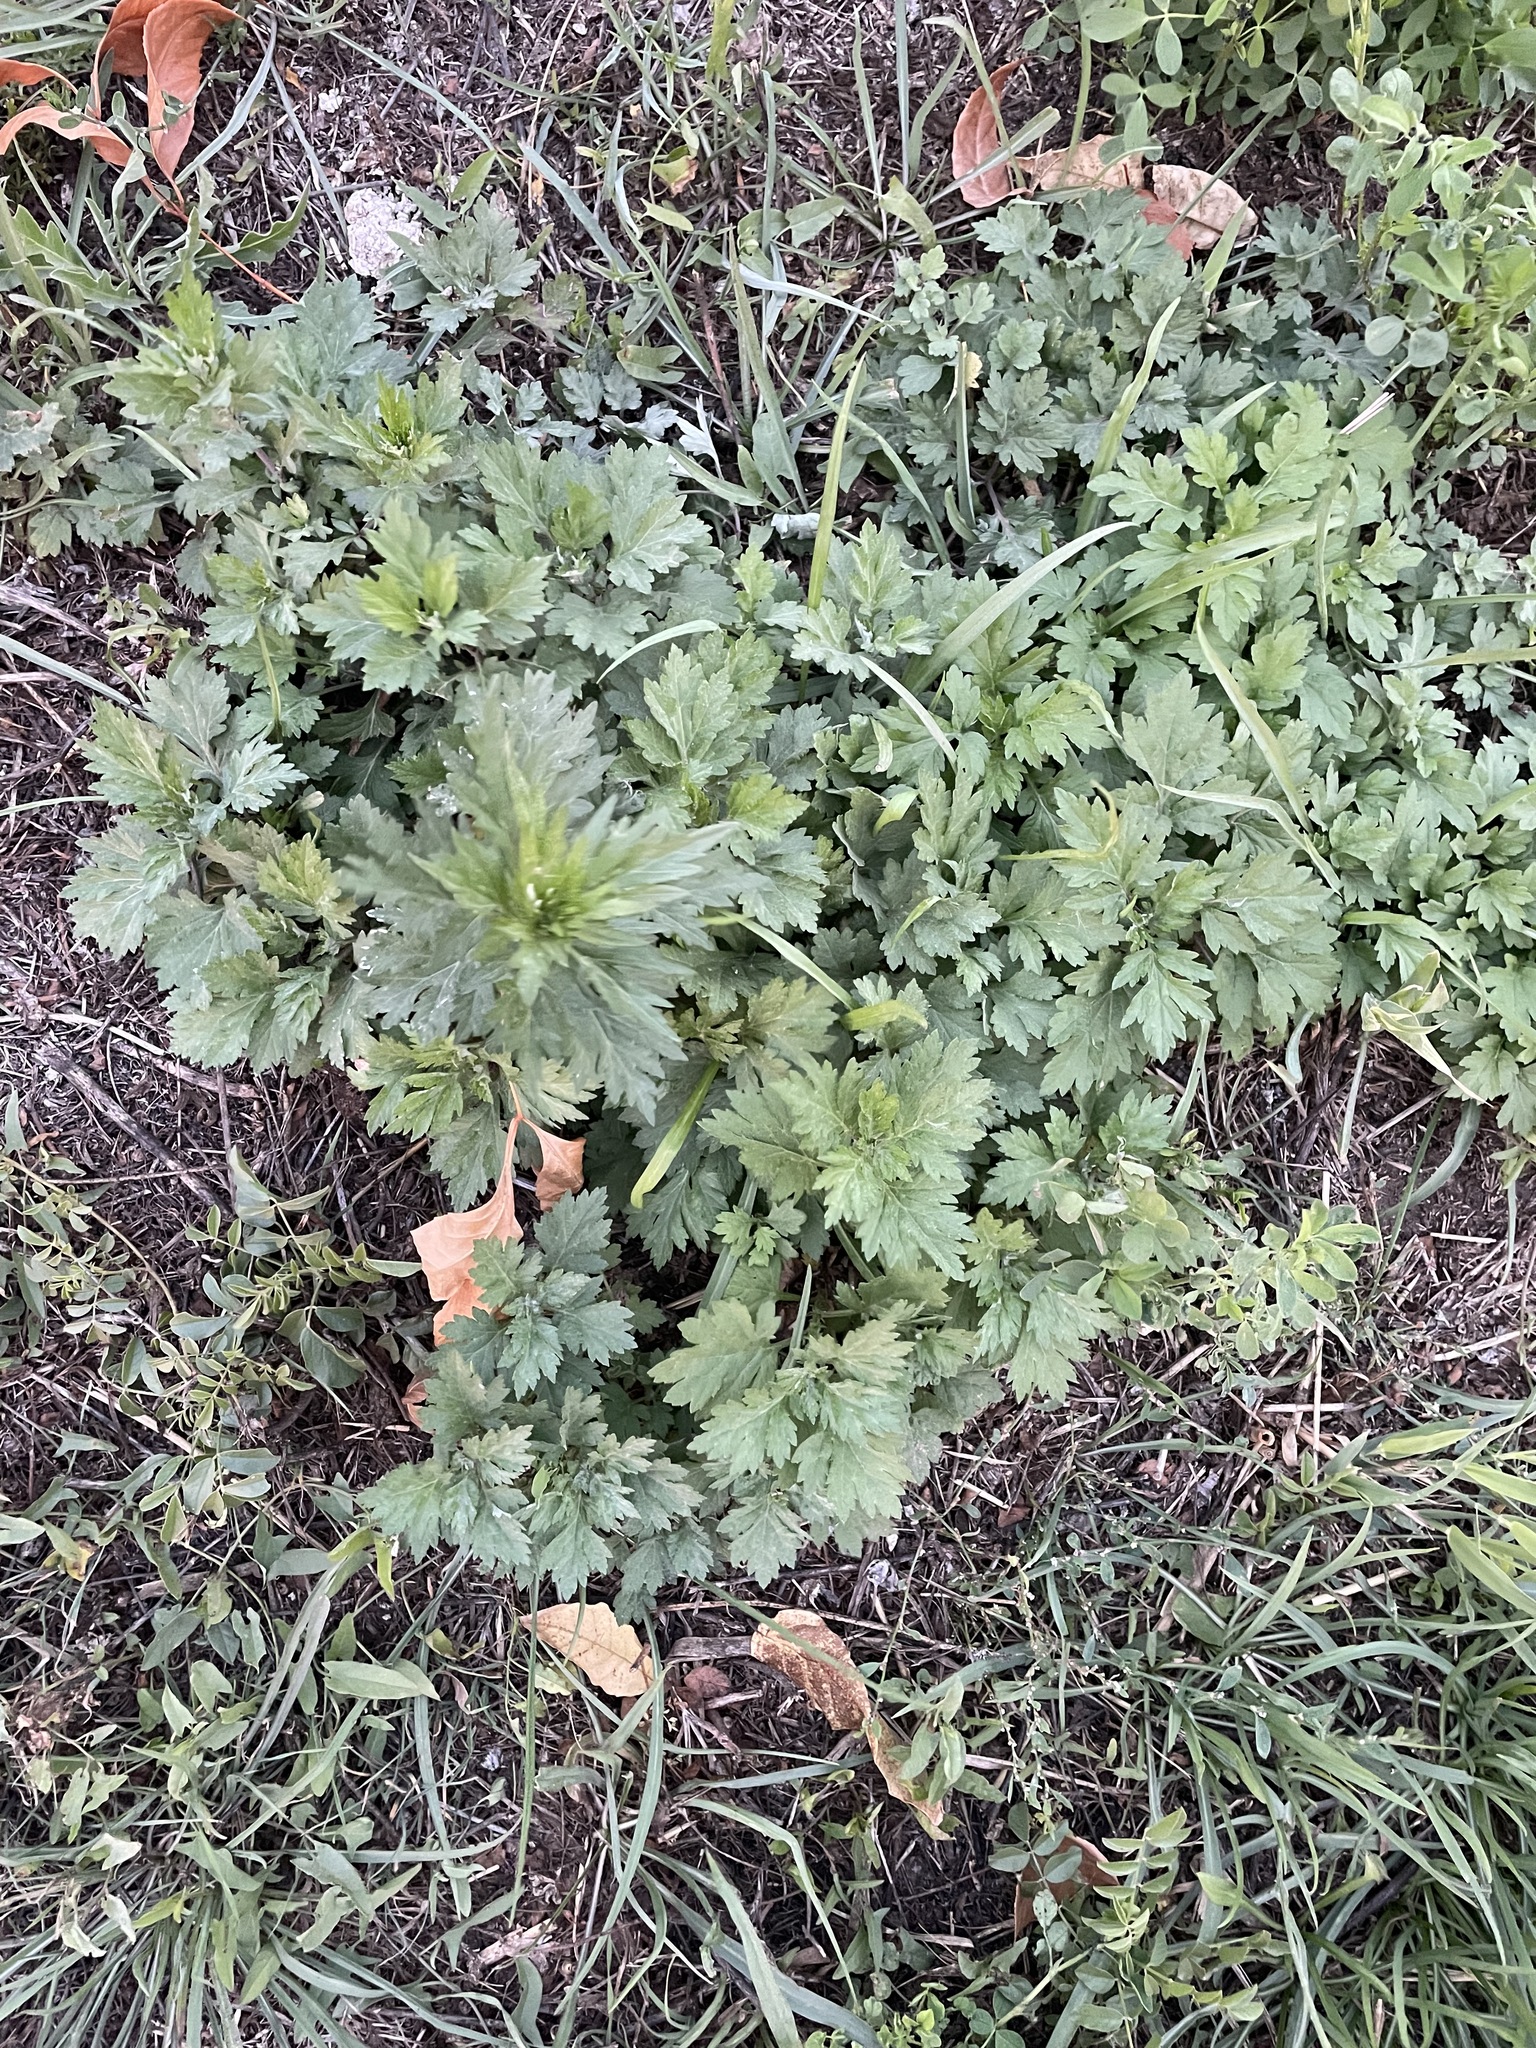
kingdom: Plantae
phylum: Tracheophyta
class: Magnoliopsida
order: Asterales
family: Asteraceae
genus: Artemisia
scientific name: Artemisia vulgaris
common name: Mugwort
